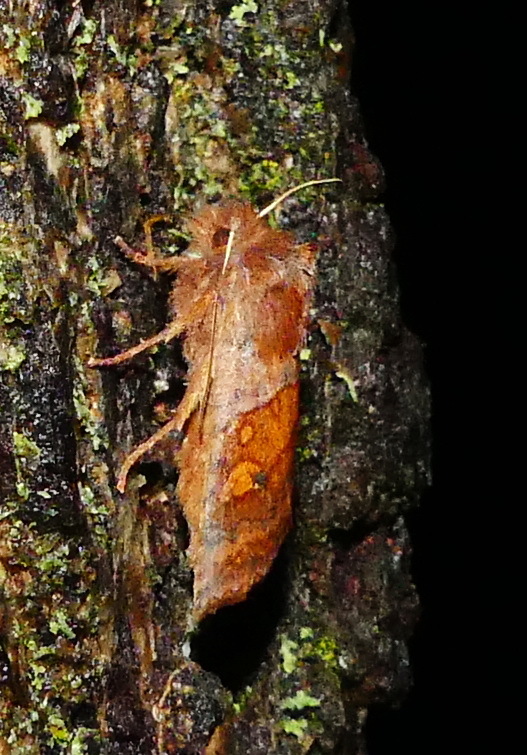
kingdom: Animalia
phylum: Arthropoda
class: Insecta
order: Lepidoptera
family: Noctuidae
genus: Eupsilia
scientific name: Eupsilia tristigmata
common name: Three-spotted sallow
